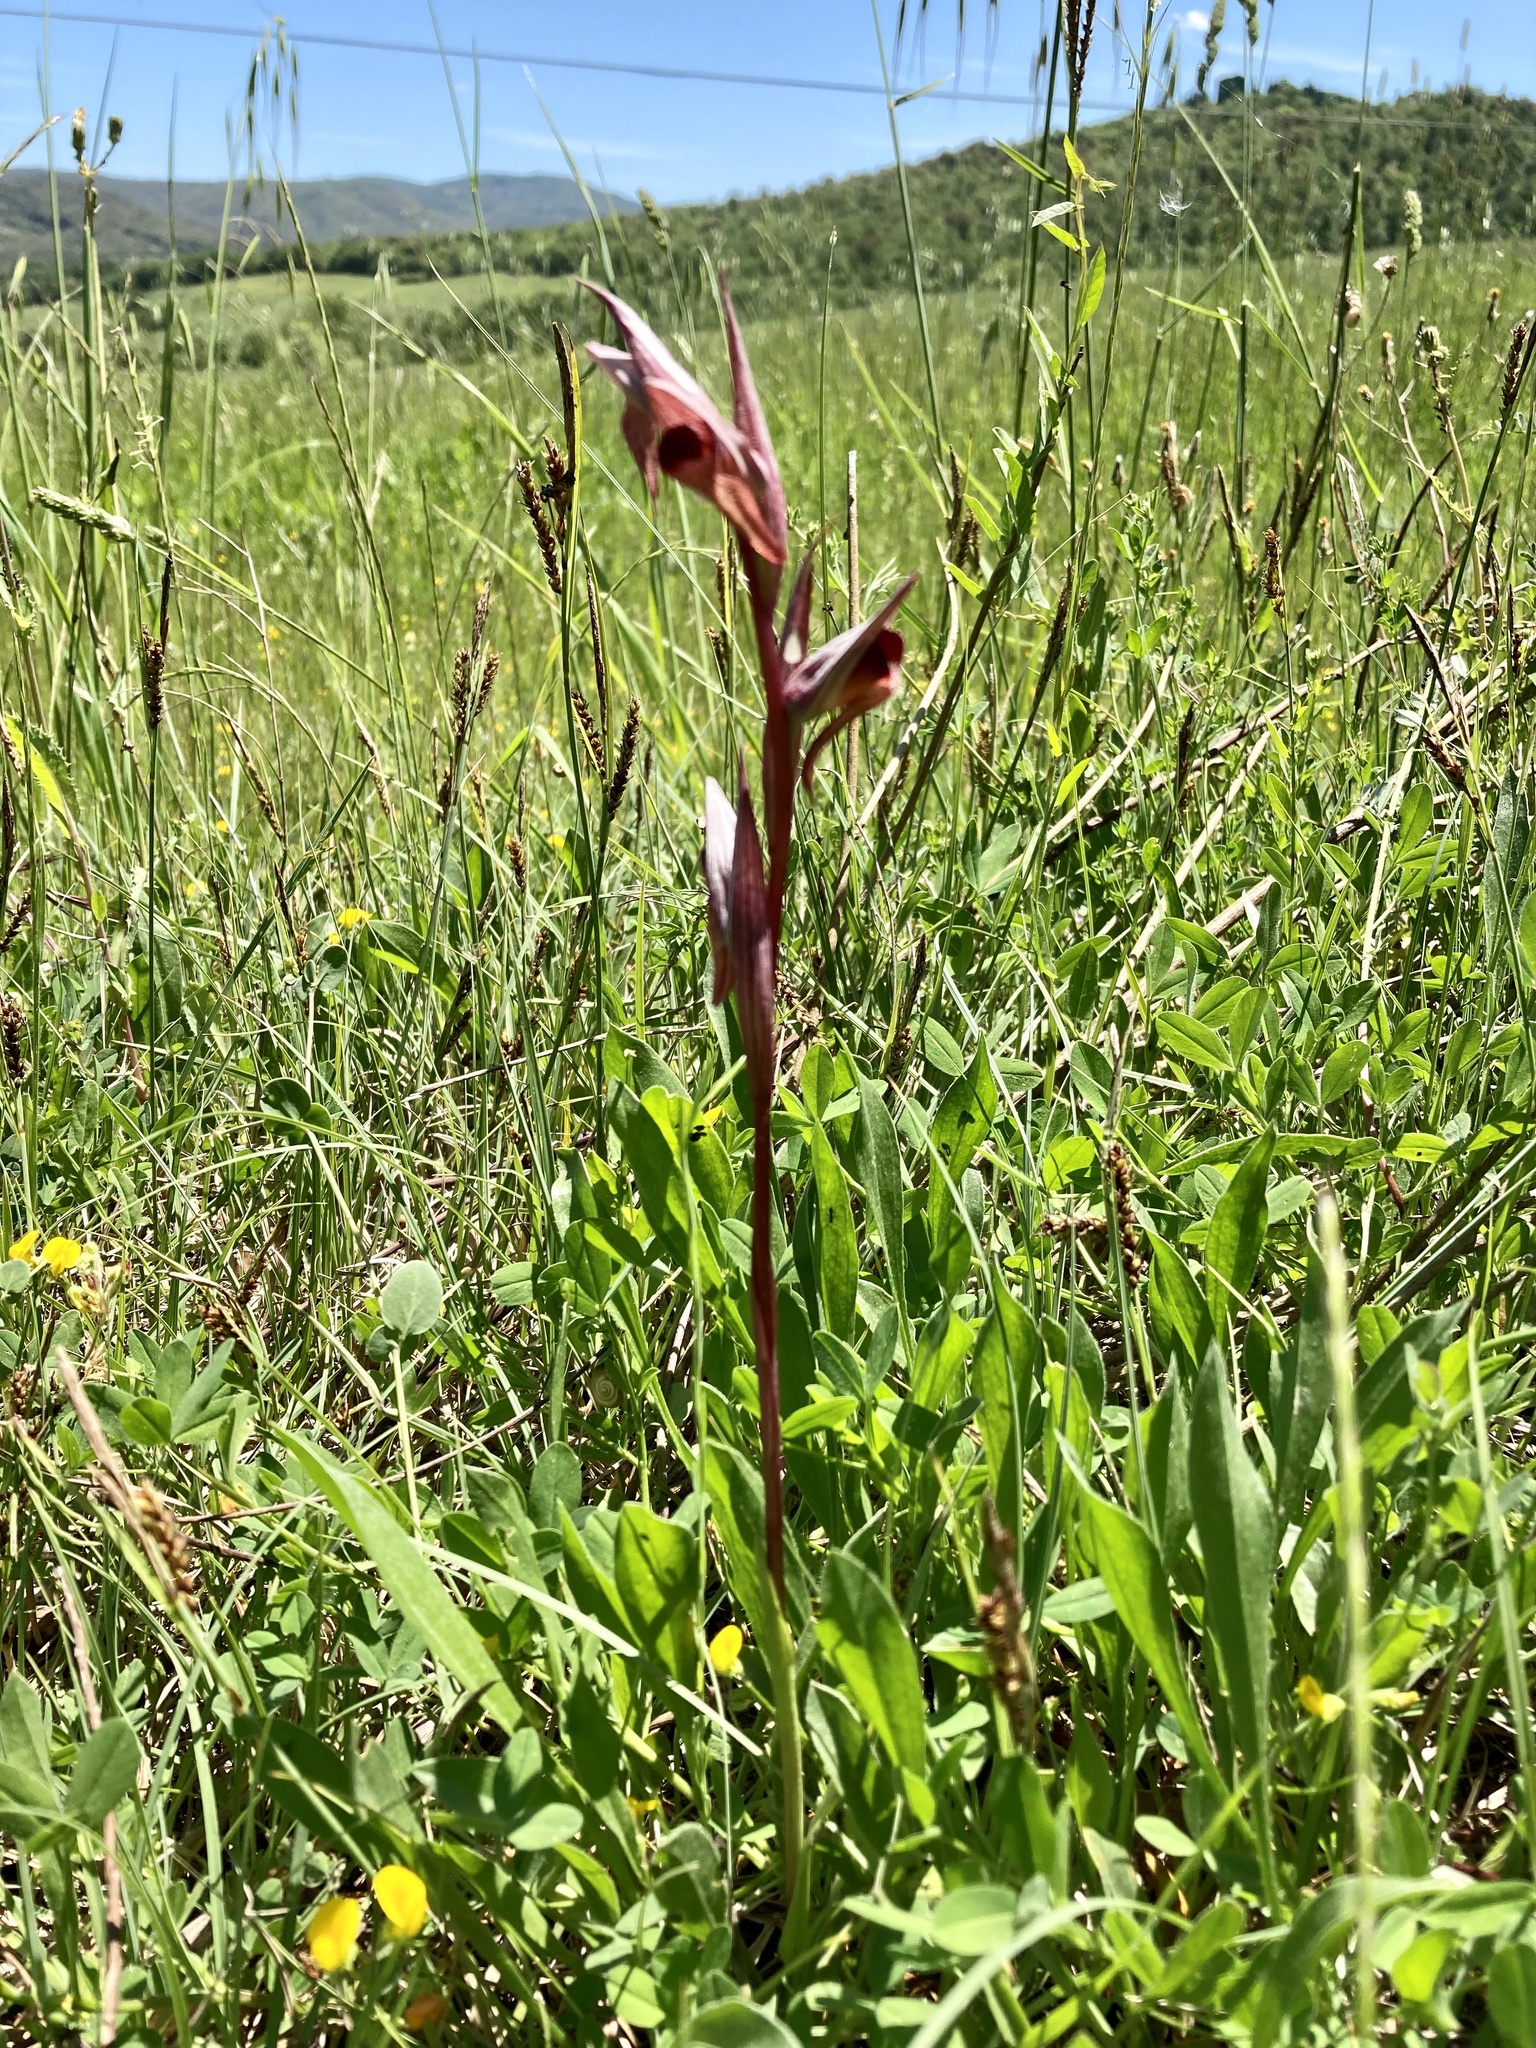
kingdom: Plantae
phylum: Tracheophyta
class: Liliopsida
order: Asparagales
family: Orchidaceae
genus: Serapias
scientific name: Serapias vomeracea
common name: Long-lipped tongue-orchid
